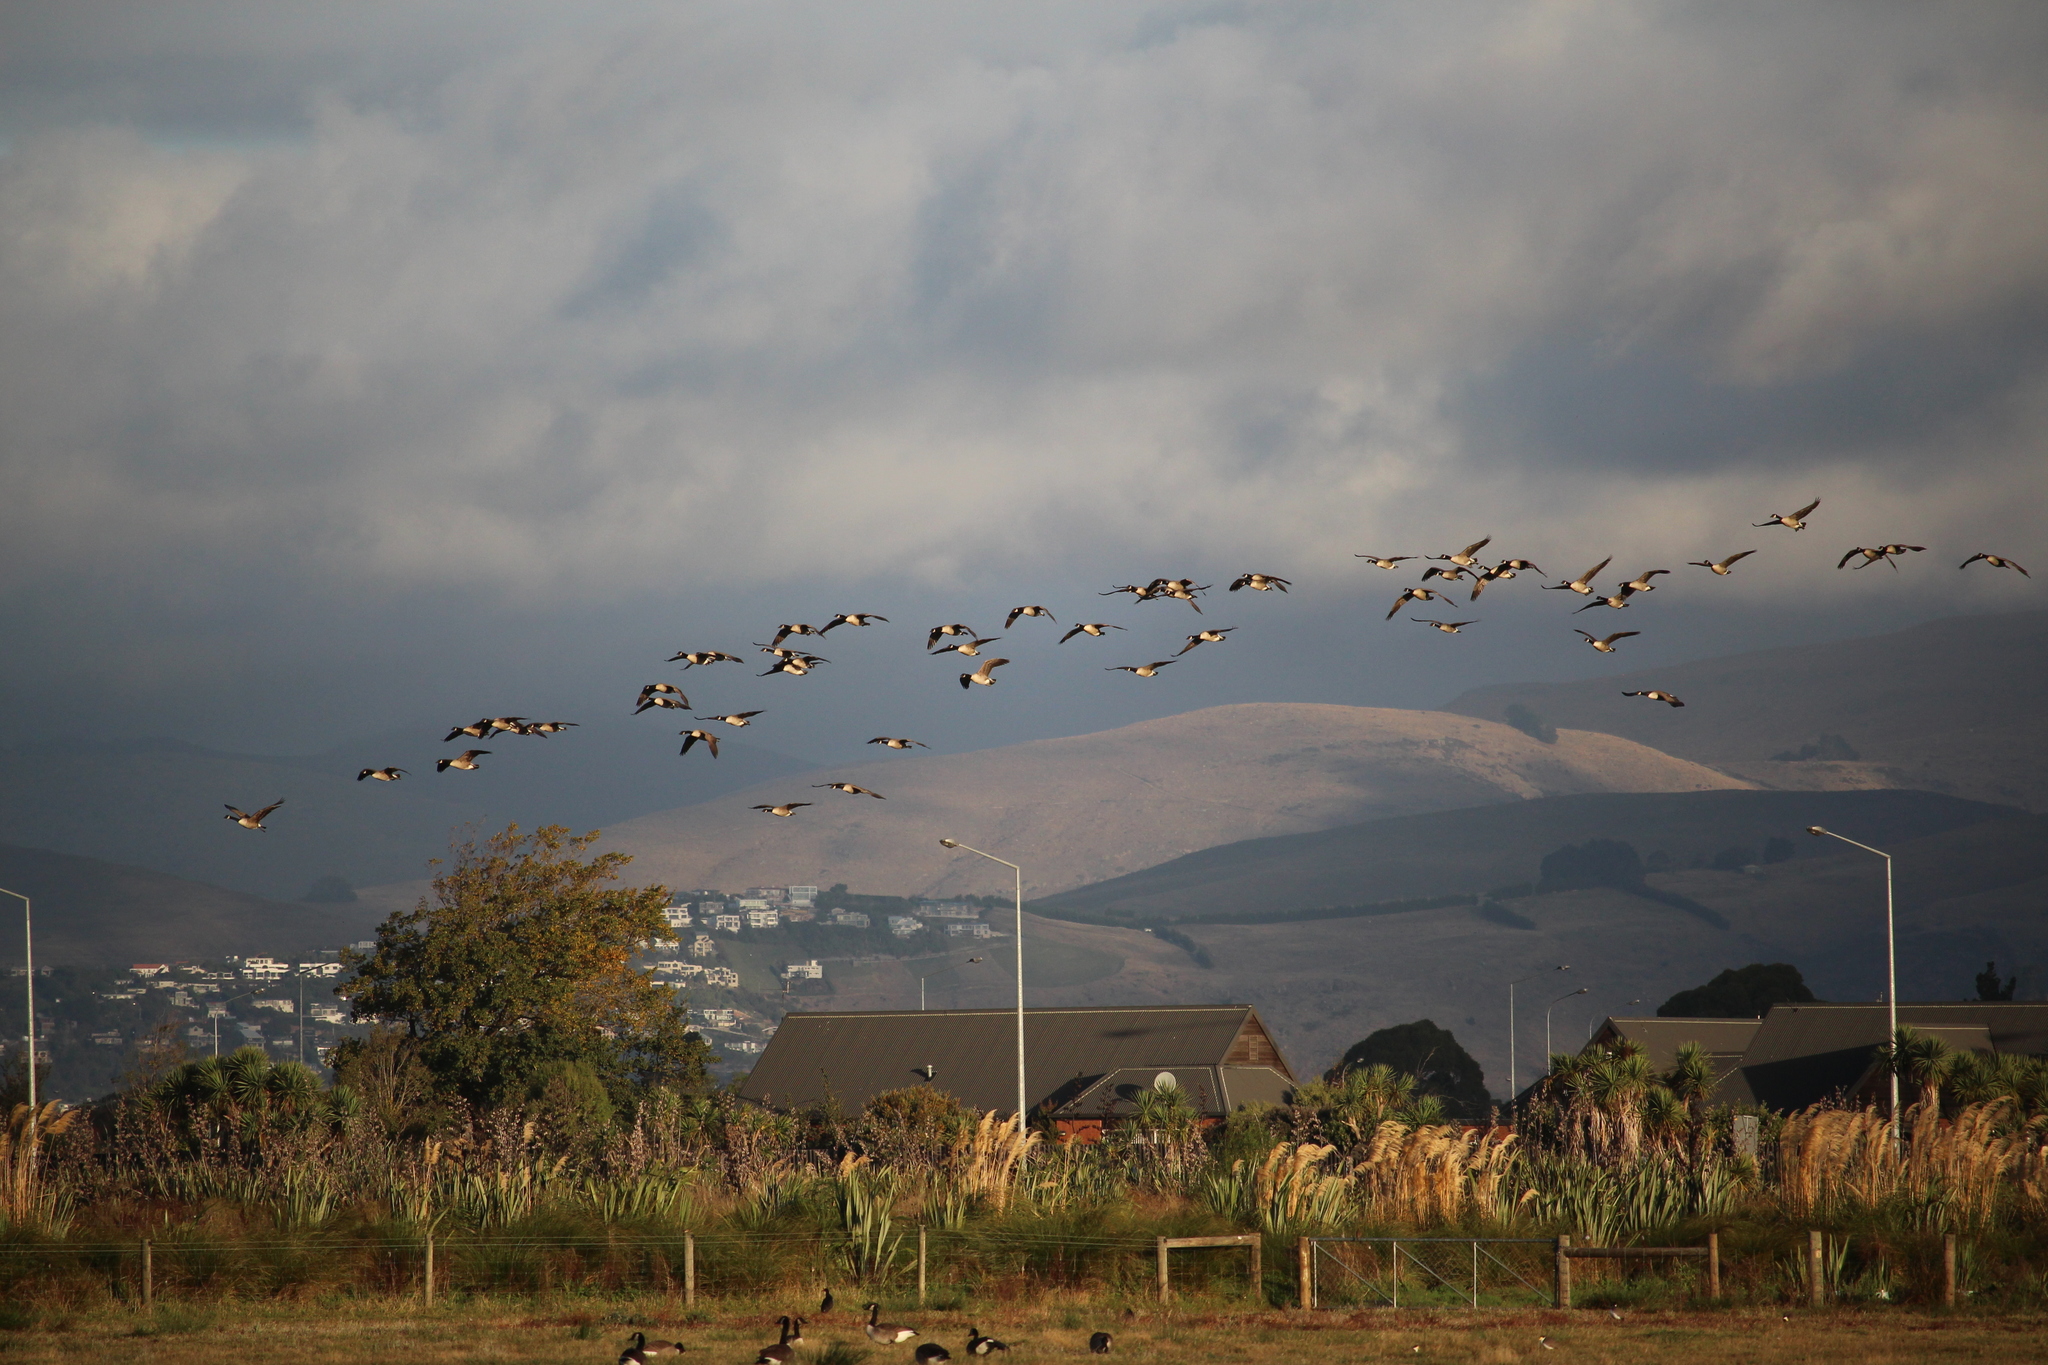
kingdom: Animalia
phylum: Chordata
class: Aves
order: Anseriformes
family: Anatidae
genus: Branta
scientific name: Branta canadensis
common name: Canada goose
